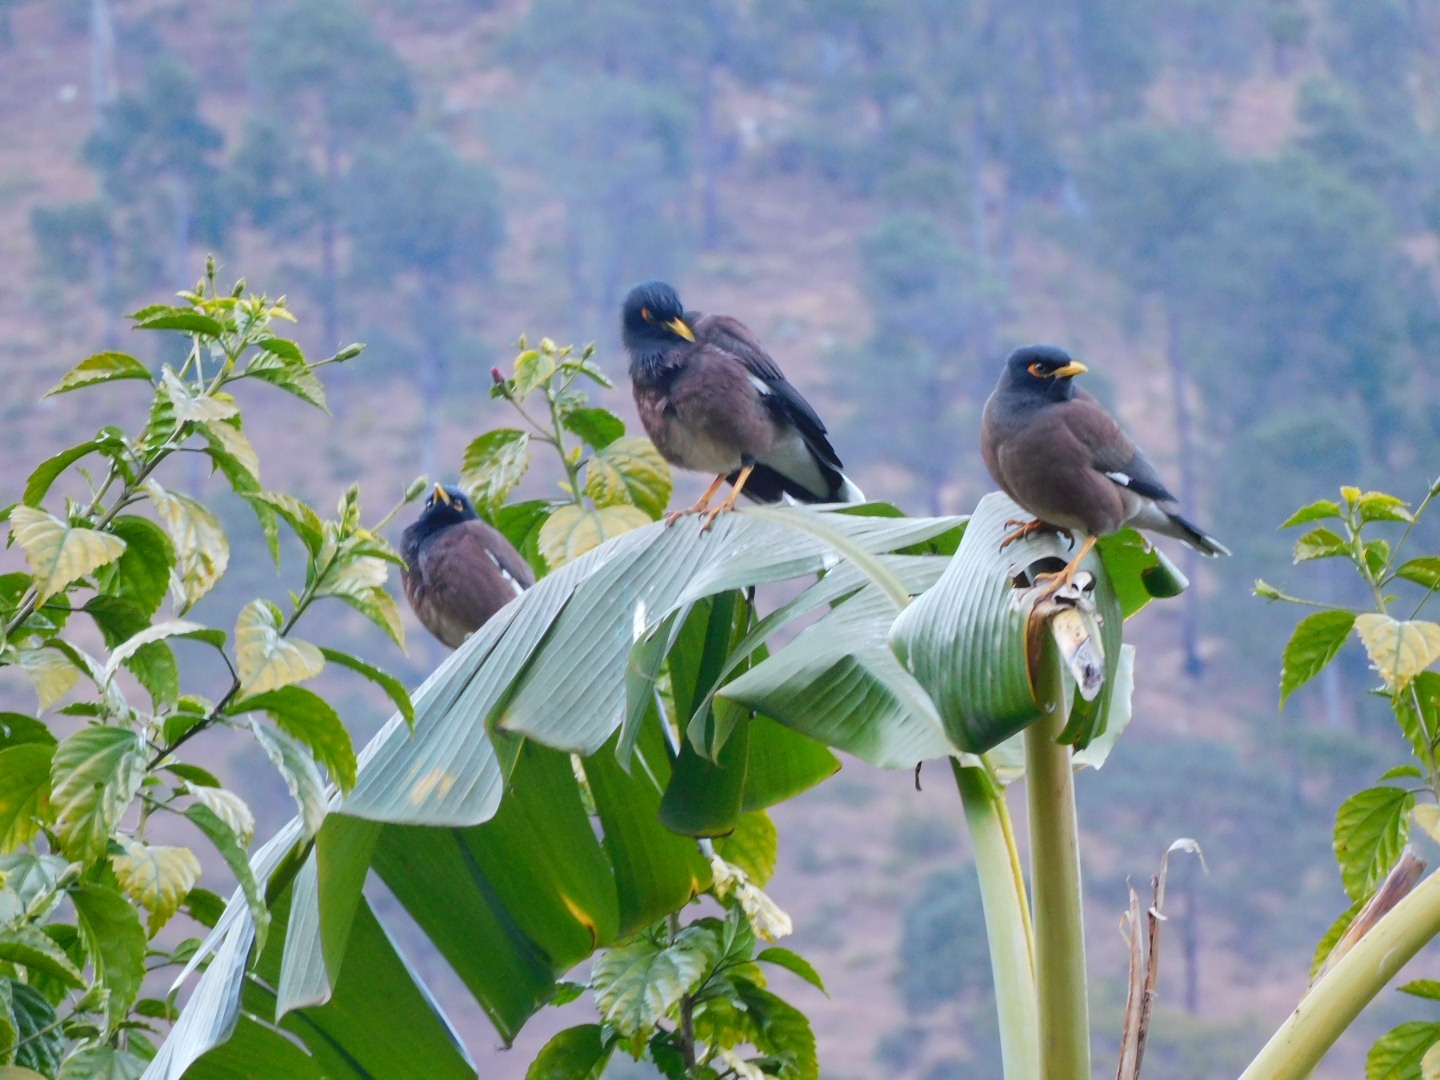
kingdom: Animalia
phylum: Chordata
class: Aves
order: Passeriformes
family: Sturnidae
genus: Acridotheres
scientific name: Acridotheres tristis
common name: Common myna
